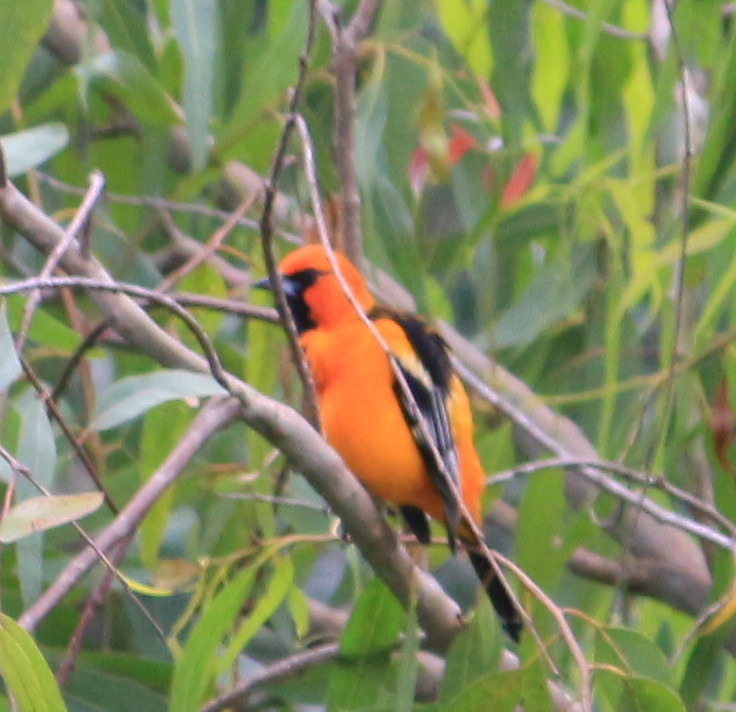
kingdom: Animalia
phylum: Chordata
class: Aves
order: Passeriformes
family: Icteridae
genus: Icterus
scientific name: Icterus gularis
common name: Altamira oriole
